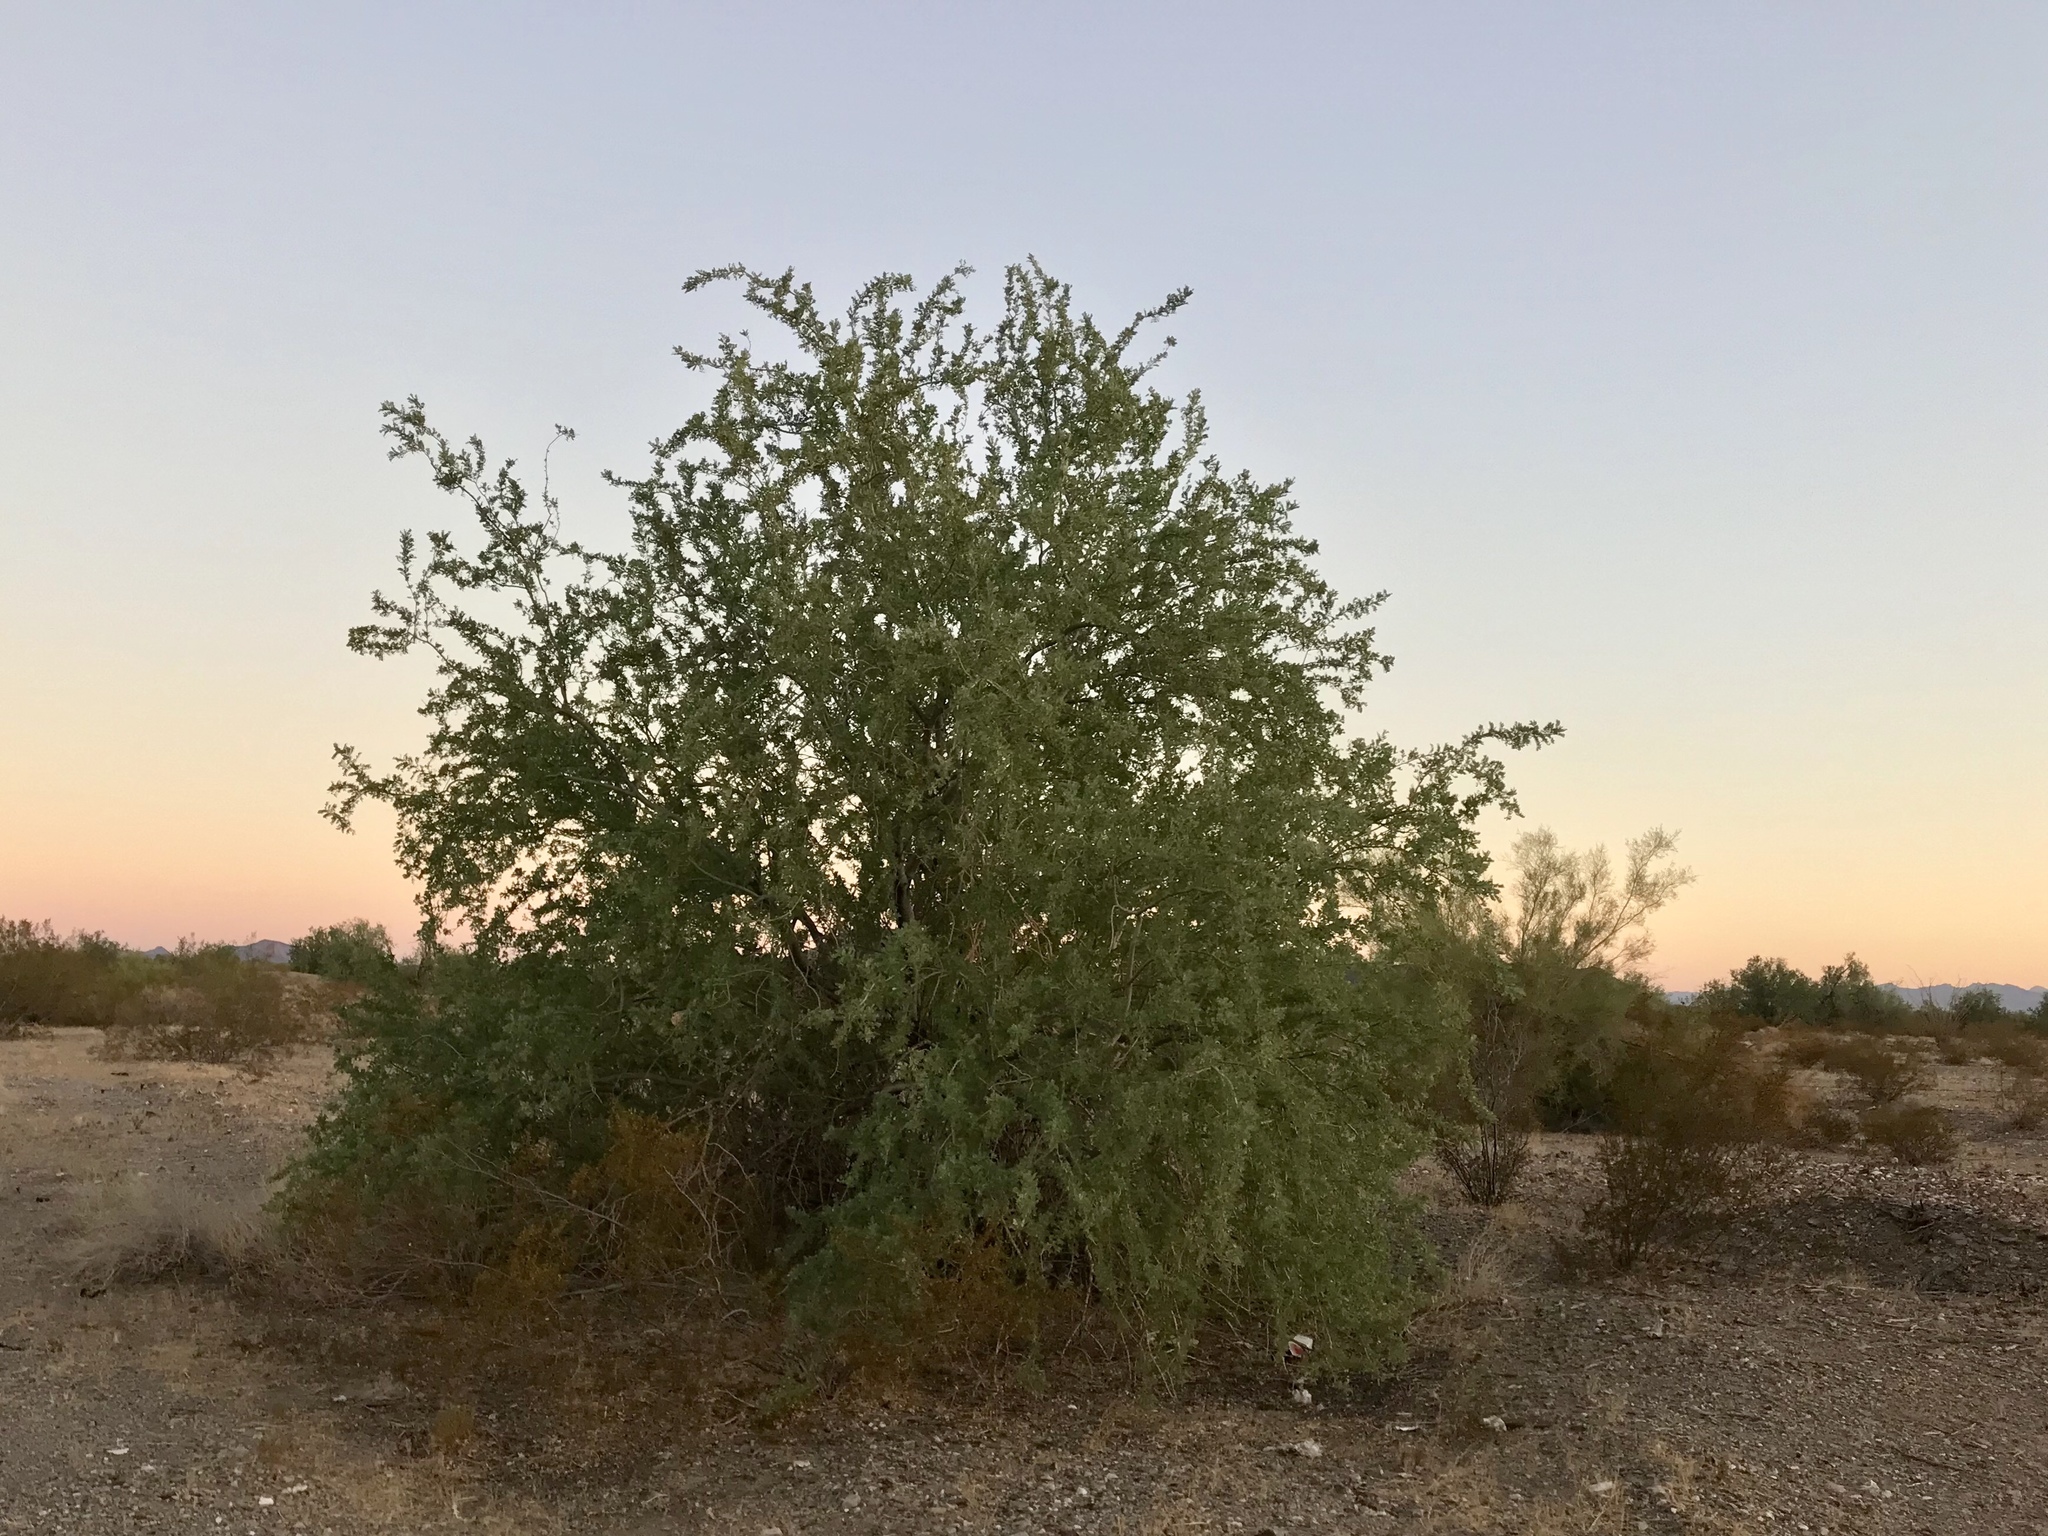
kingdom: Plantae
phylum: Tracheophyta
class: Magnoliopsida
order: Fabales
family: Fabaceae
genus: Olneya
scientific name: Olneya tesota
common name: Desert ironwood
